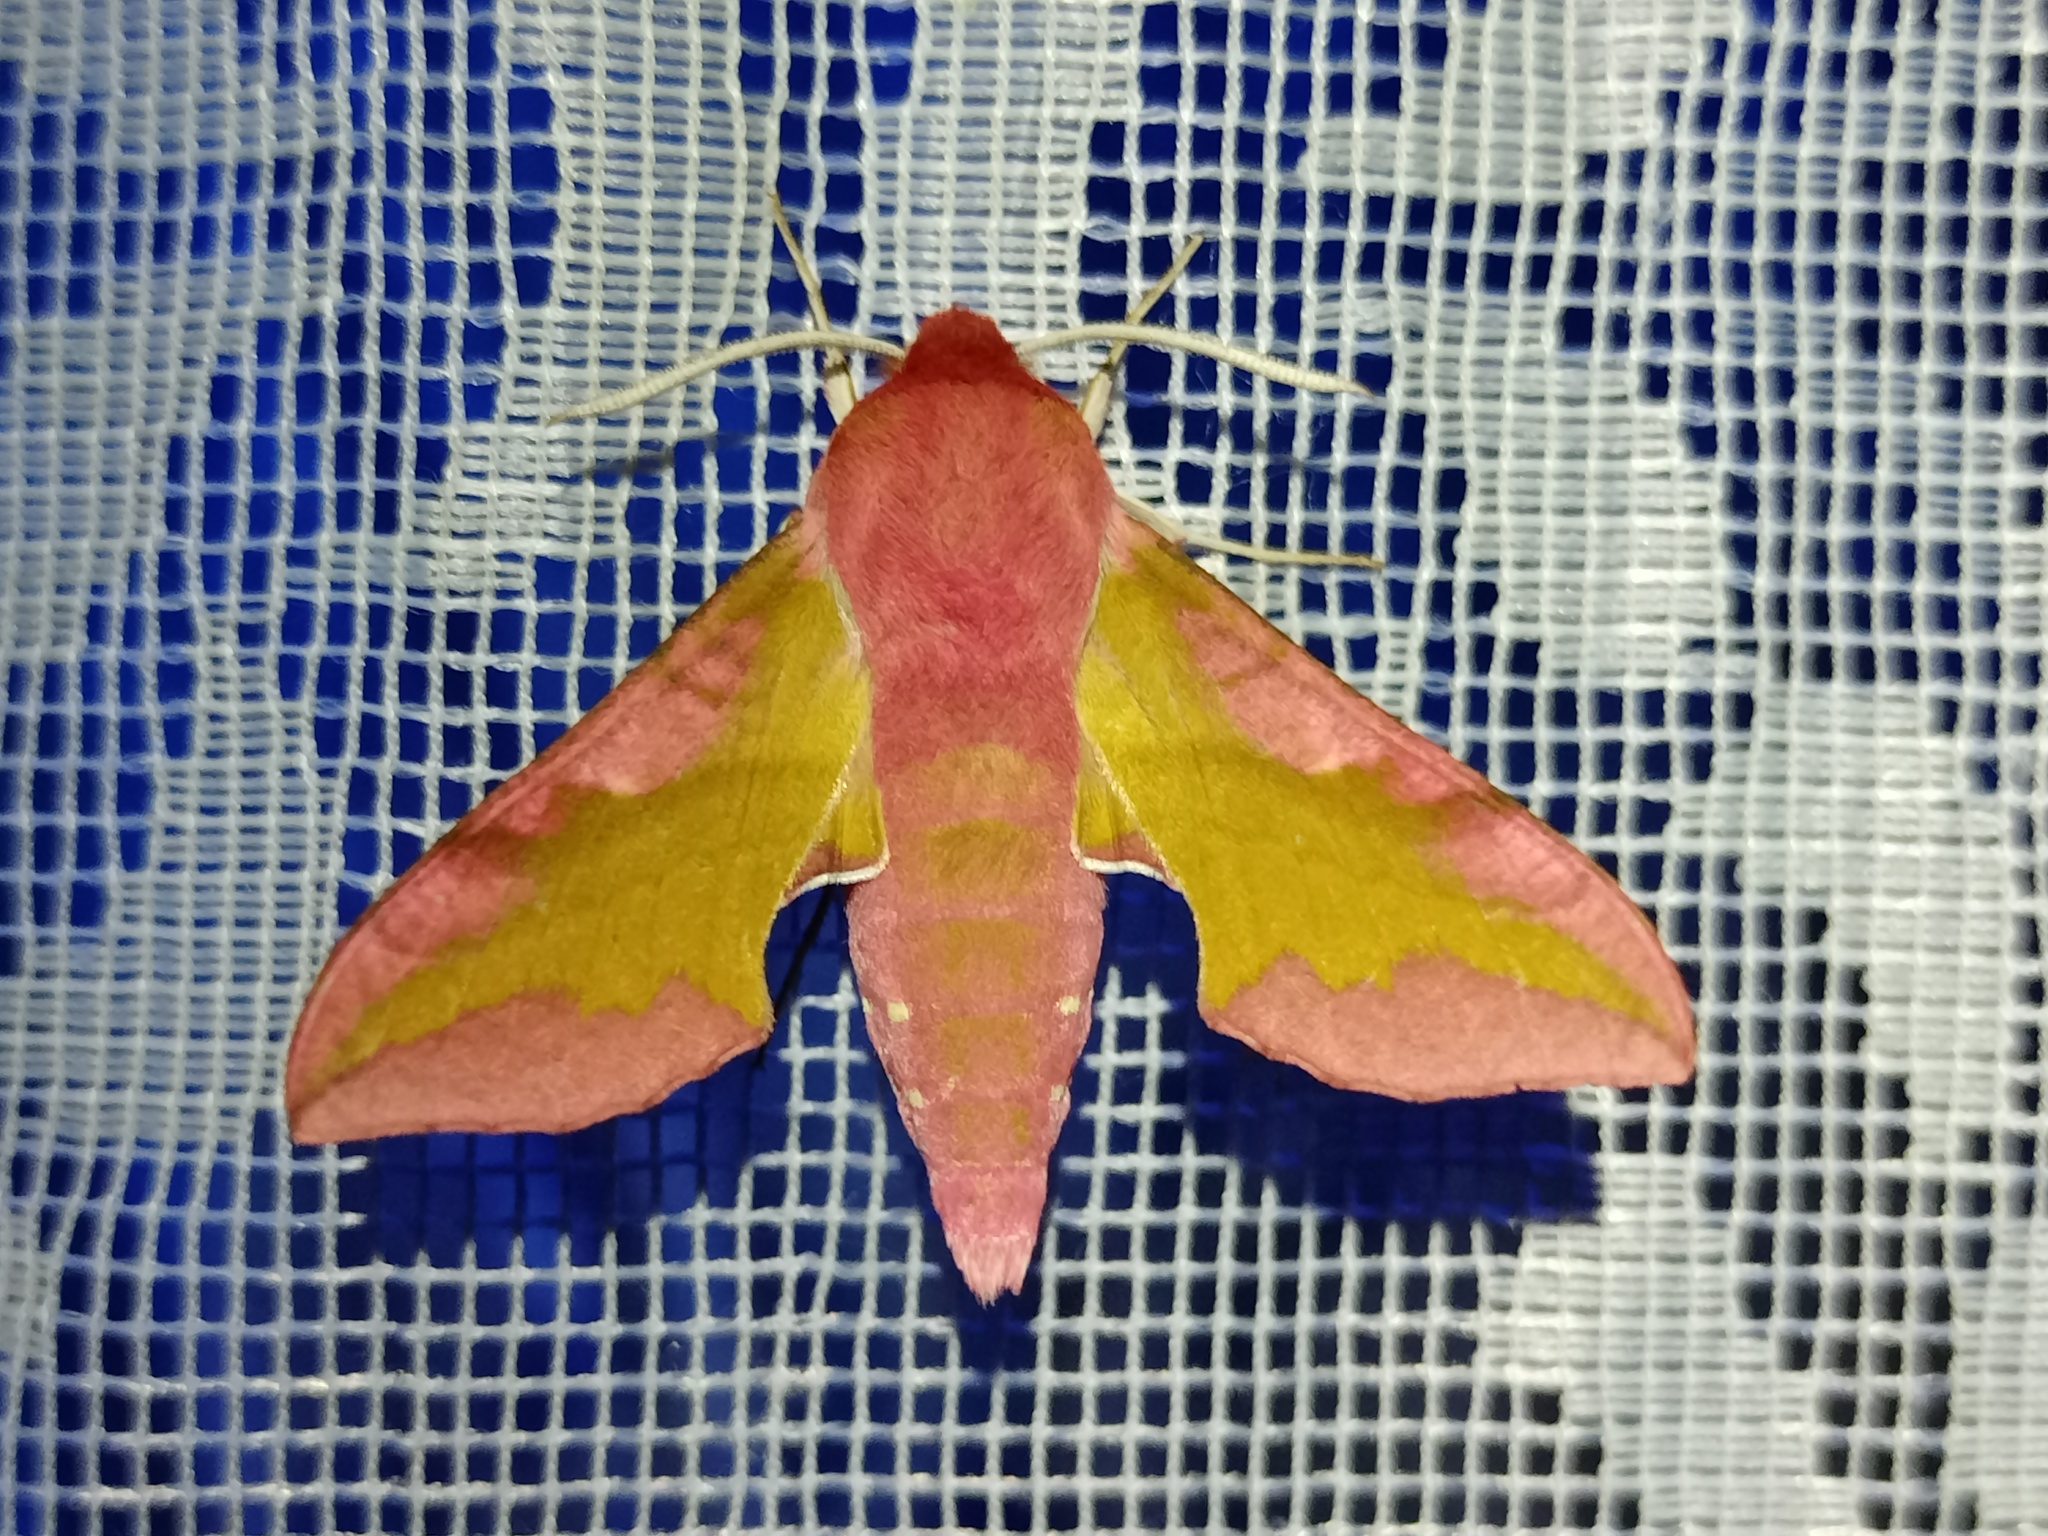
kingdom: Animalia
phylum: Arthropoda
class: Insecta
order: Lepidoptera
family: Sphingidae
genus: Deilephila
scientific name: Deilephila porcellus
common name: Small elephant hawk-moth
